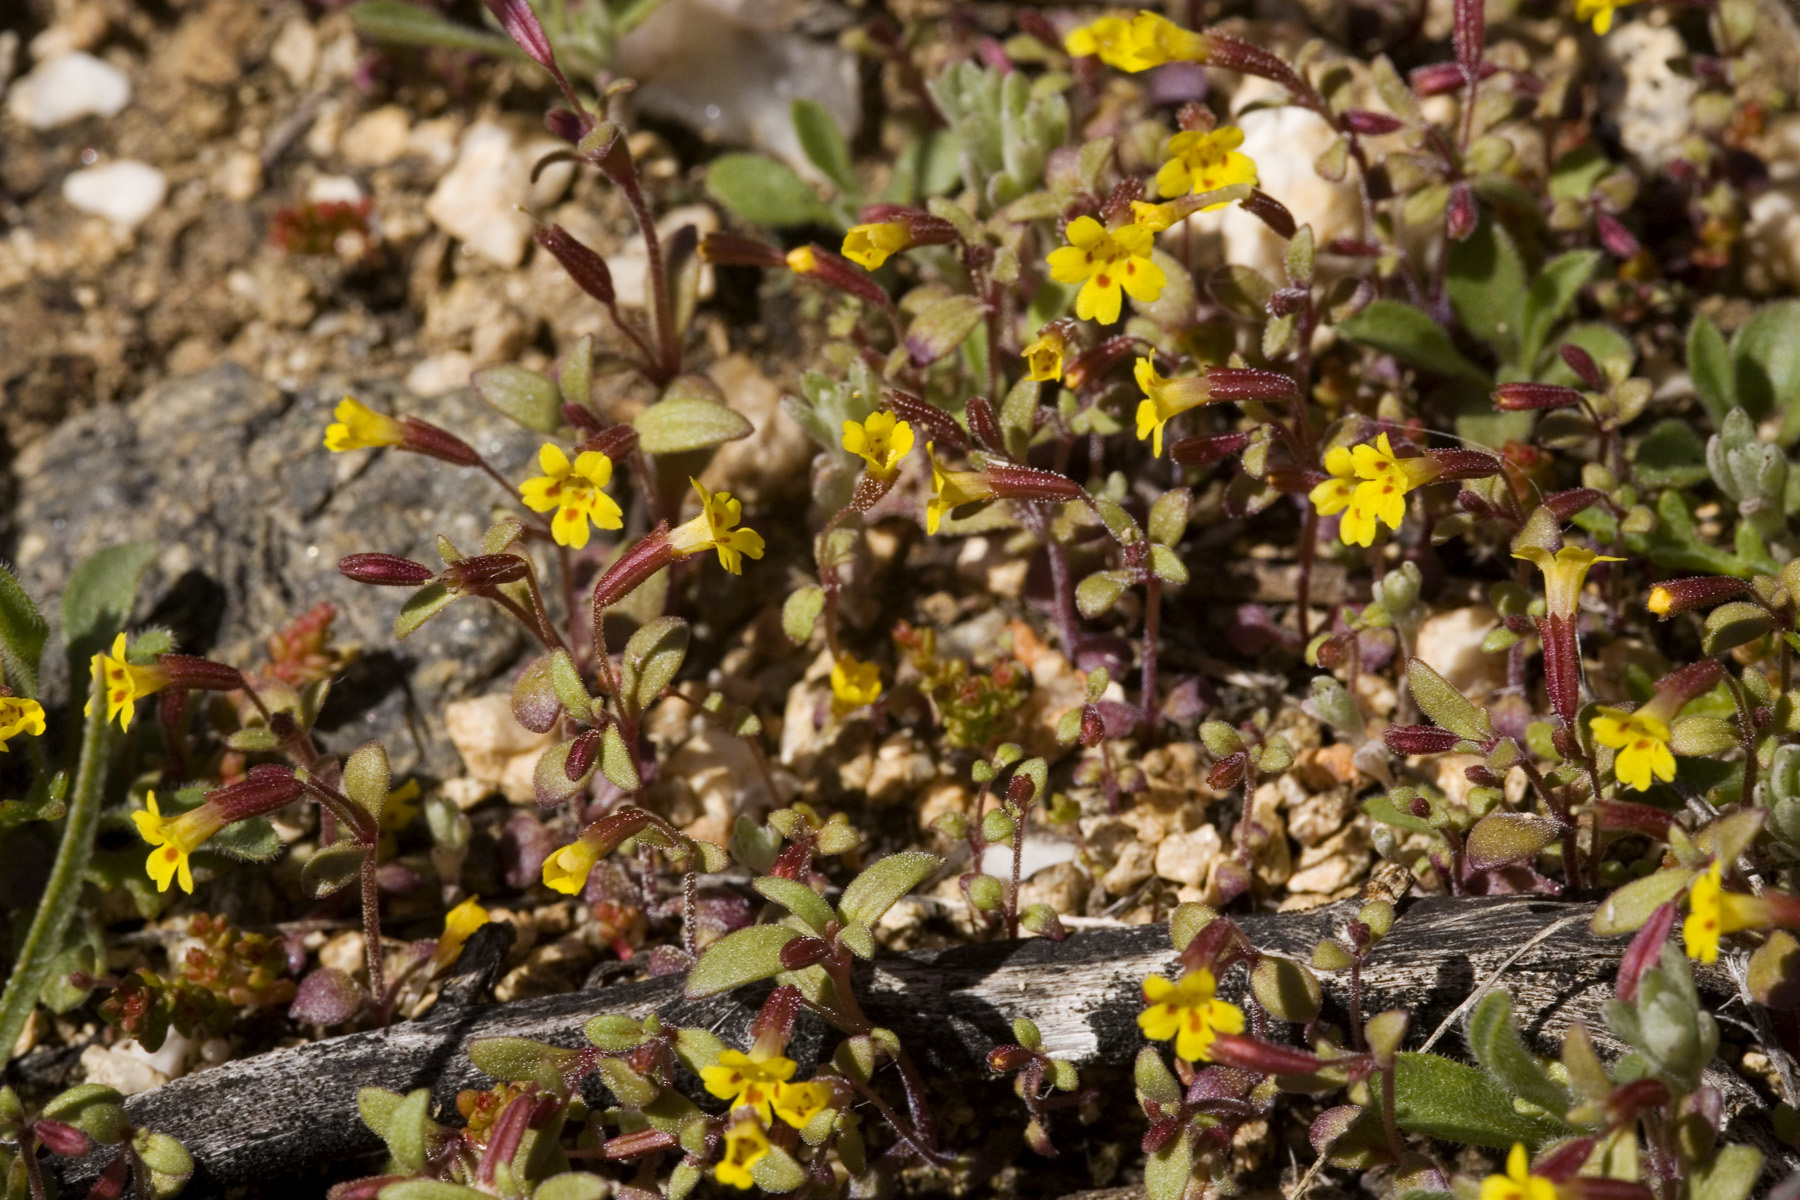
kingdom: Plantae
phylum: Tracheophyta
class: Magnoliopsida
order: Lamiales
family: Phrymaceae
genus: Erythranthe
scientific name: Erythranthe rubella
